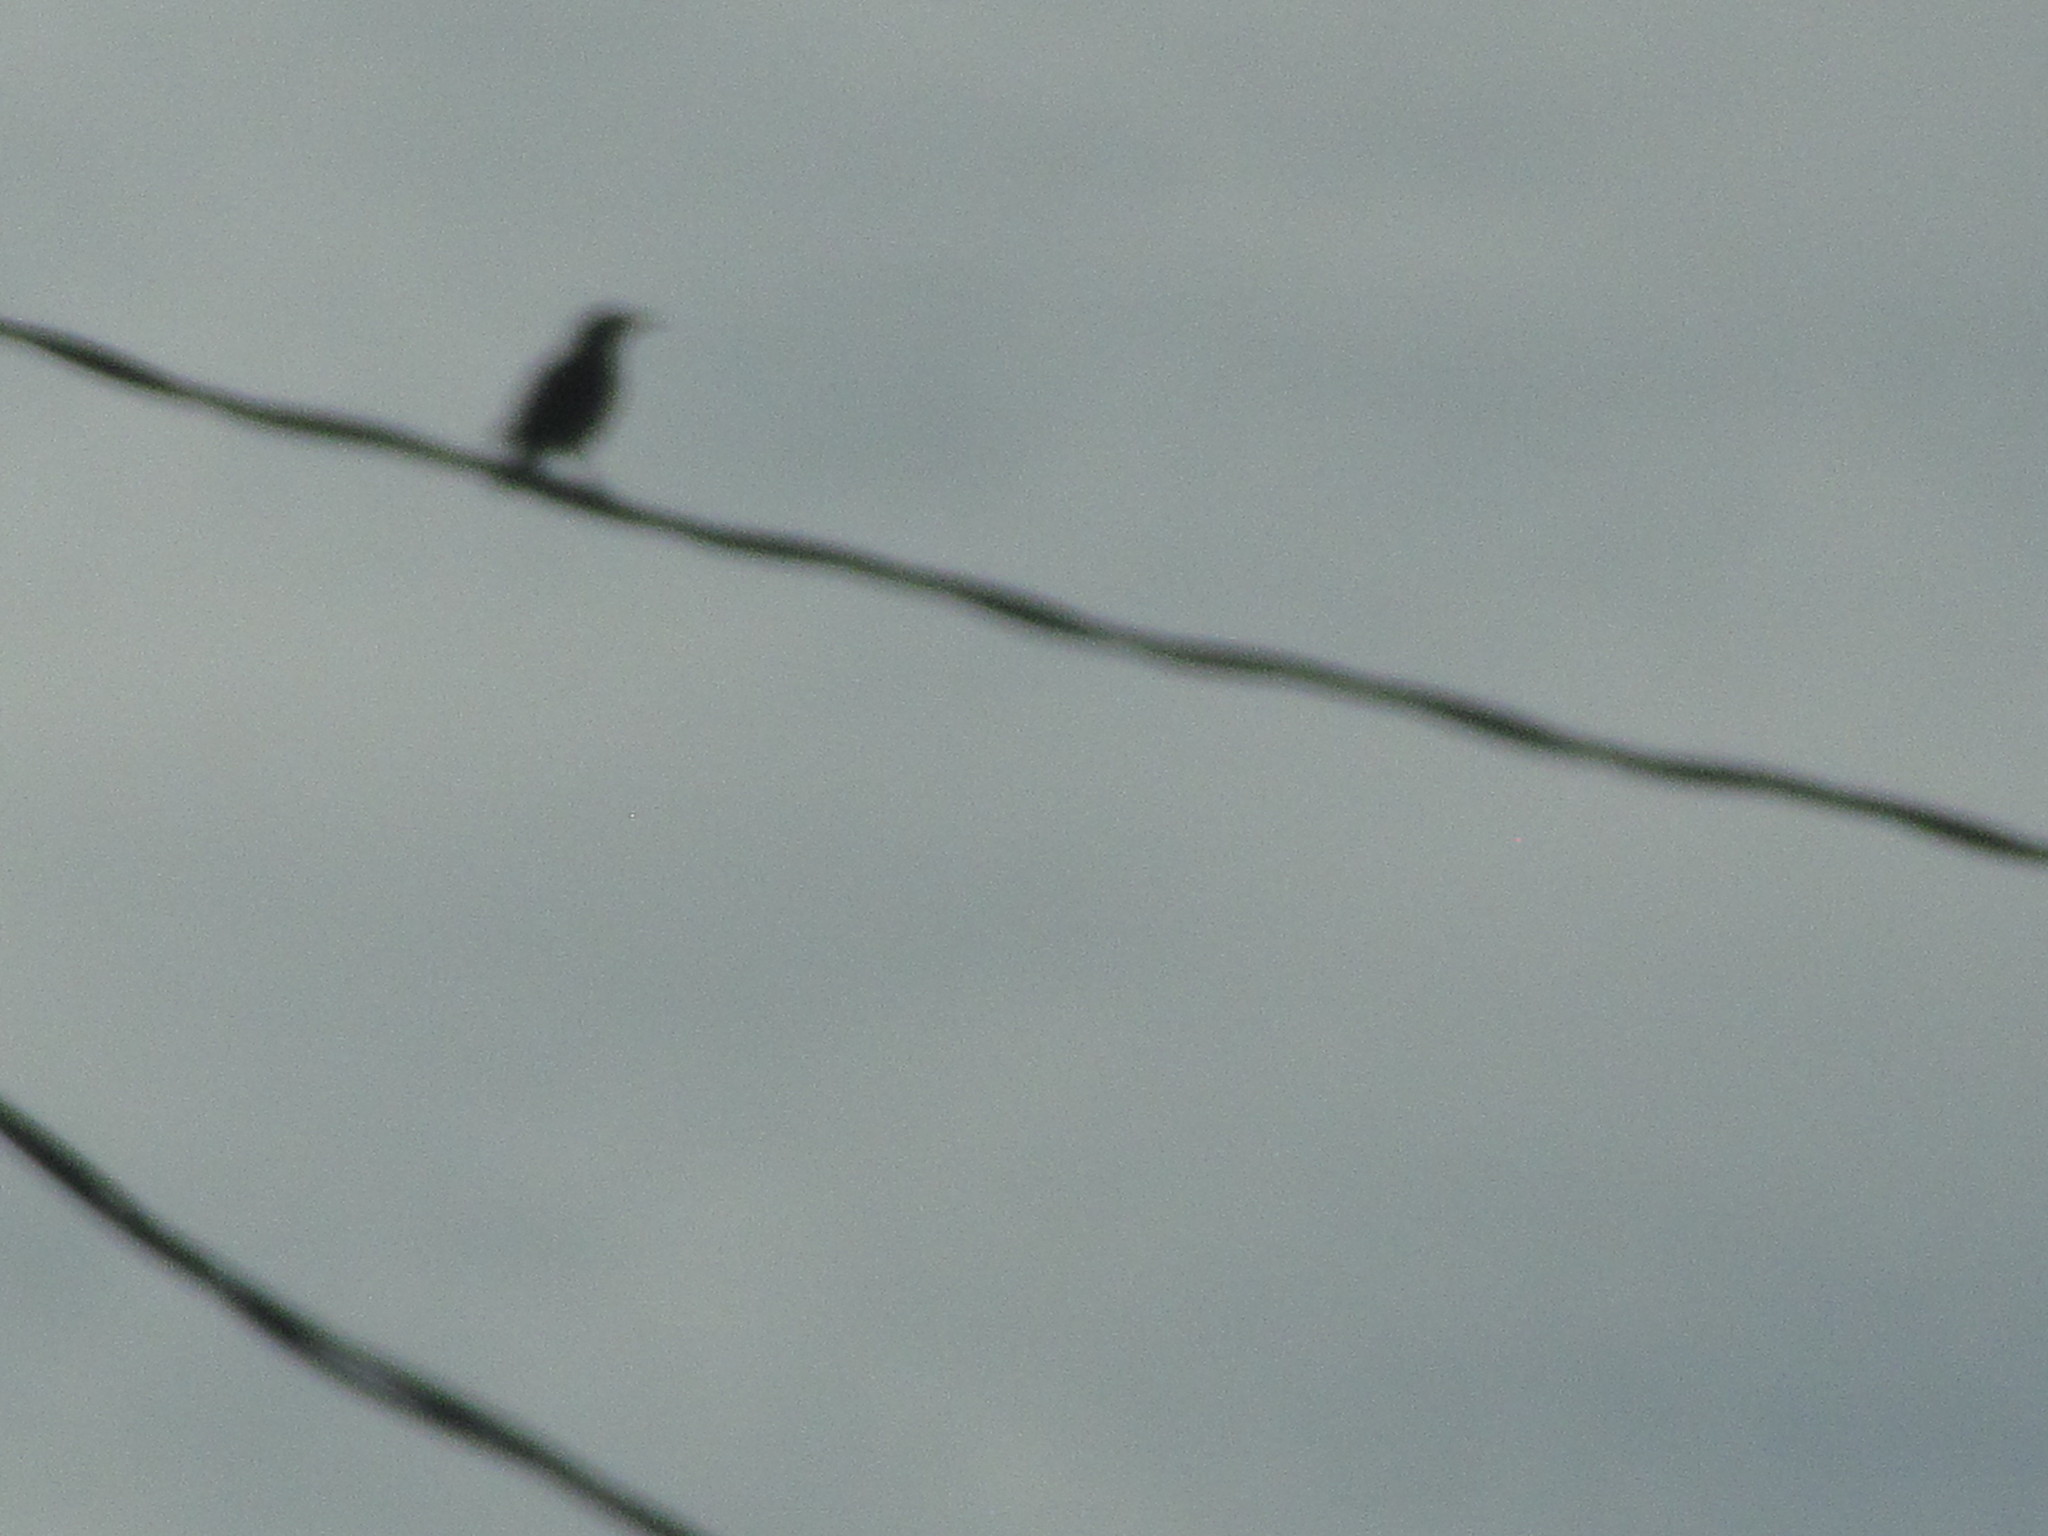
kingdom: Animalia
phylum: Chordata
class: Aves
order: Passeriformes
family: Sturnidae
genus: Sturnus
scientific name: Sturnus vulgaris
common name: Common starling
